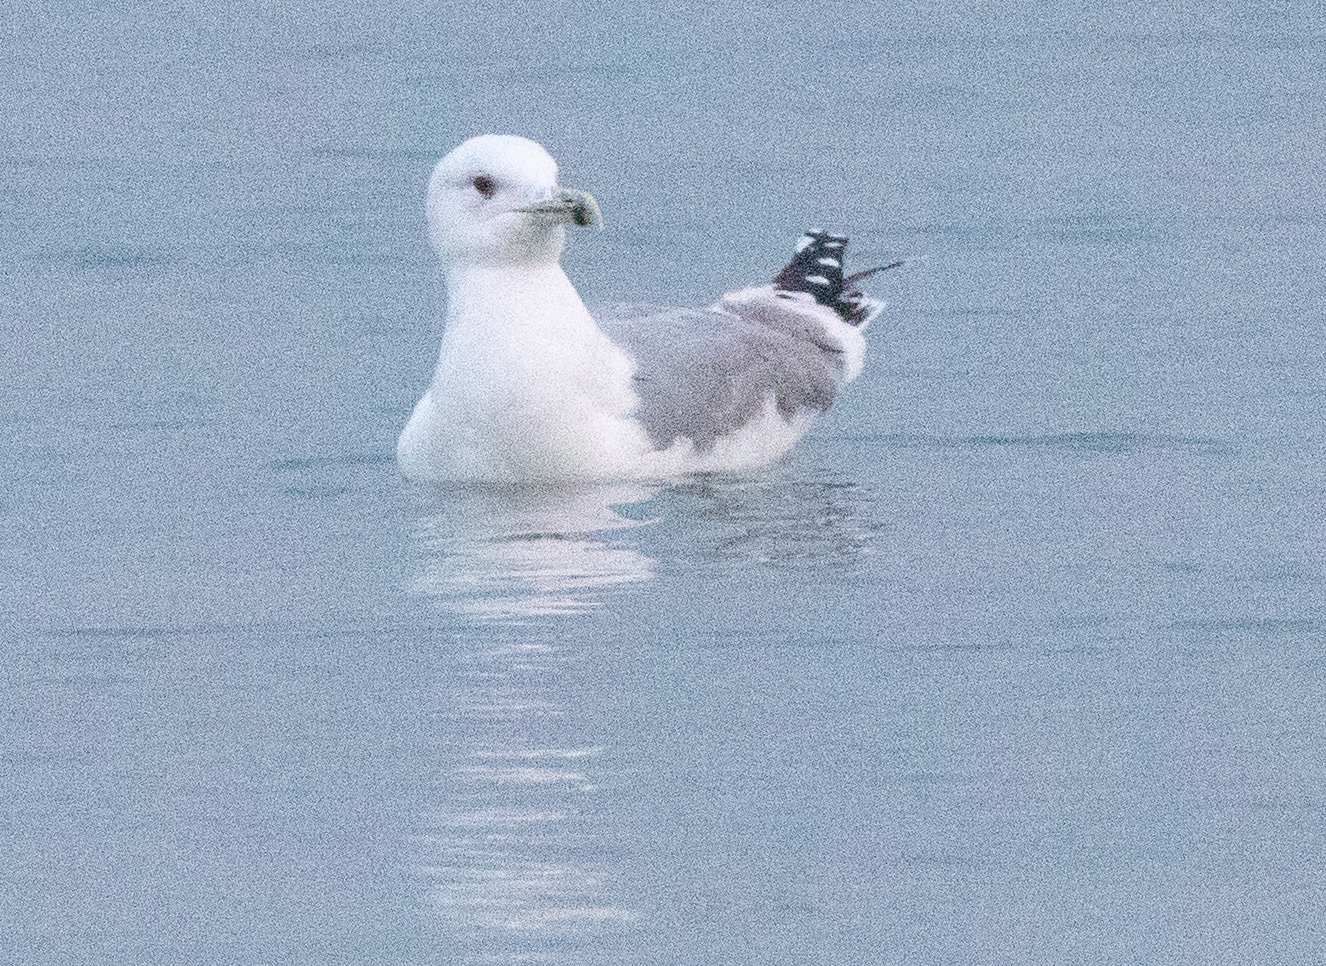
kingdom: Animalia
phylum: Chordata
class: Aves
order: Charadriiformes
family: Laridae
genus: Larus
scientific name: Larus cachinnans
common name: Caspian gull
